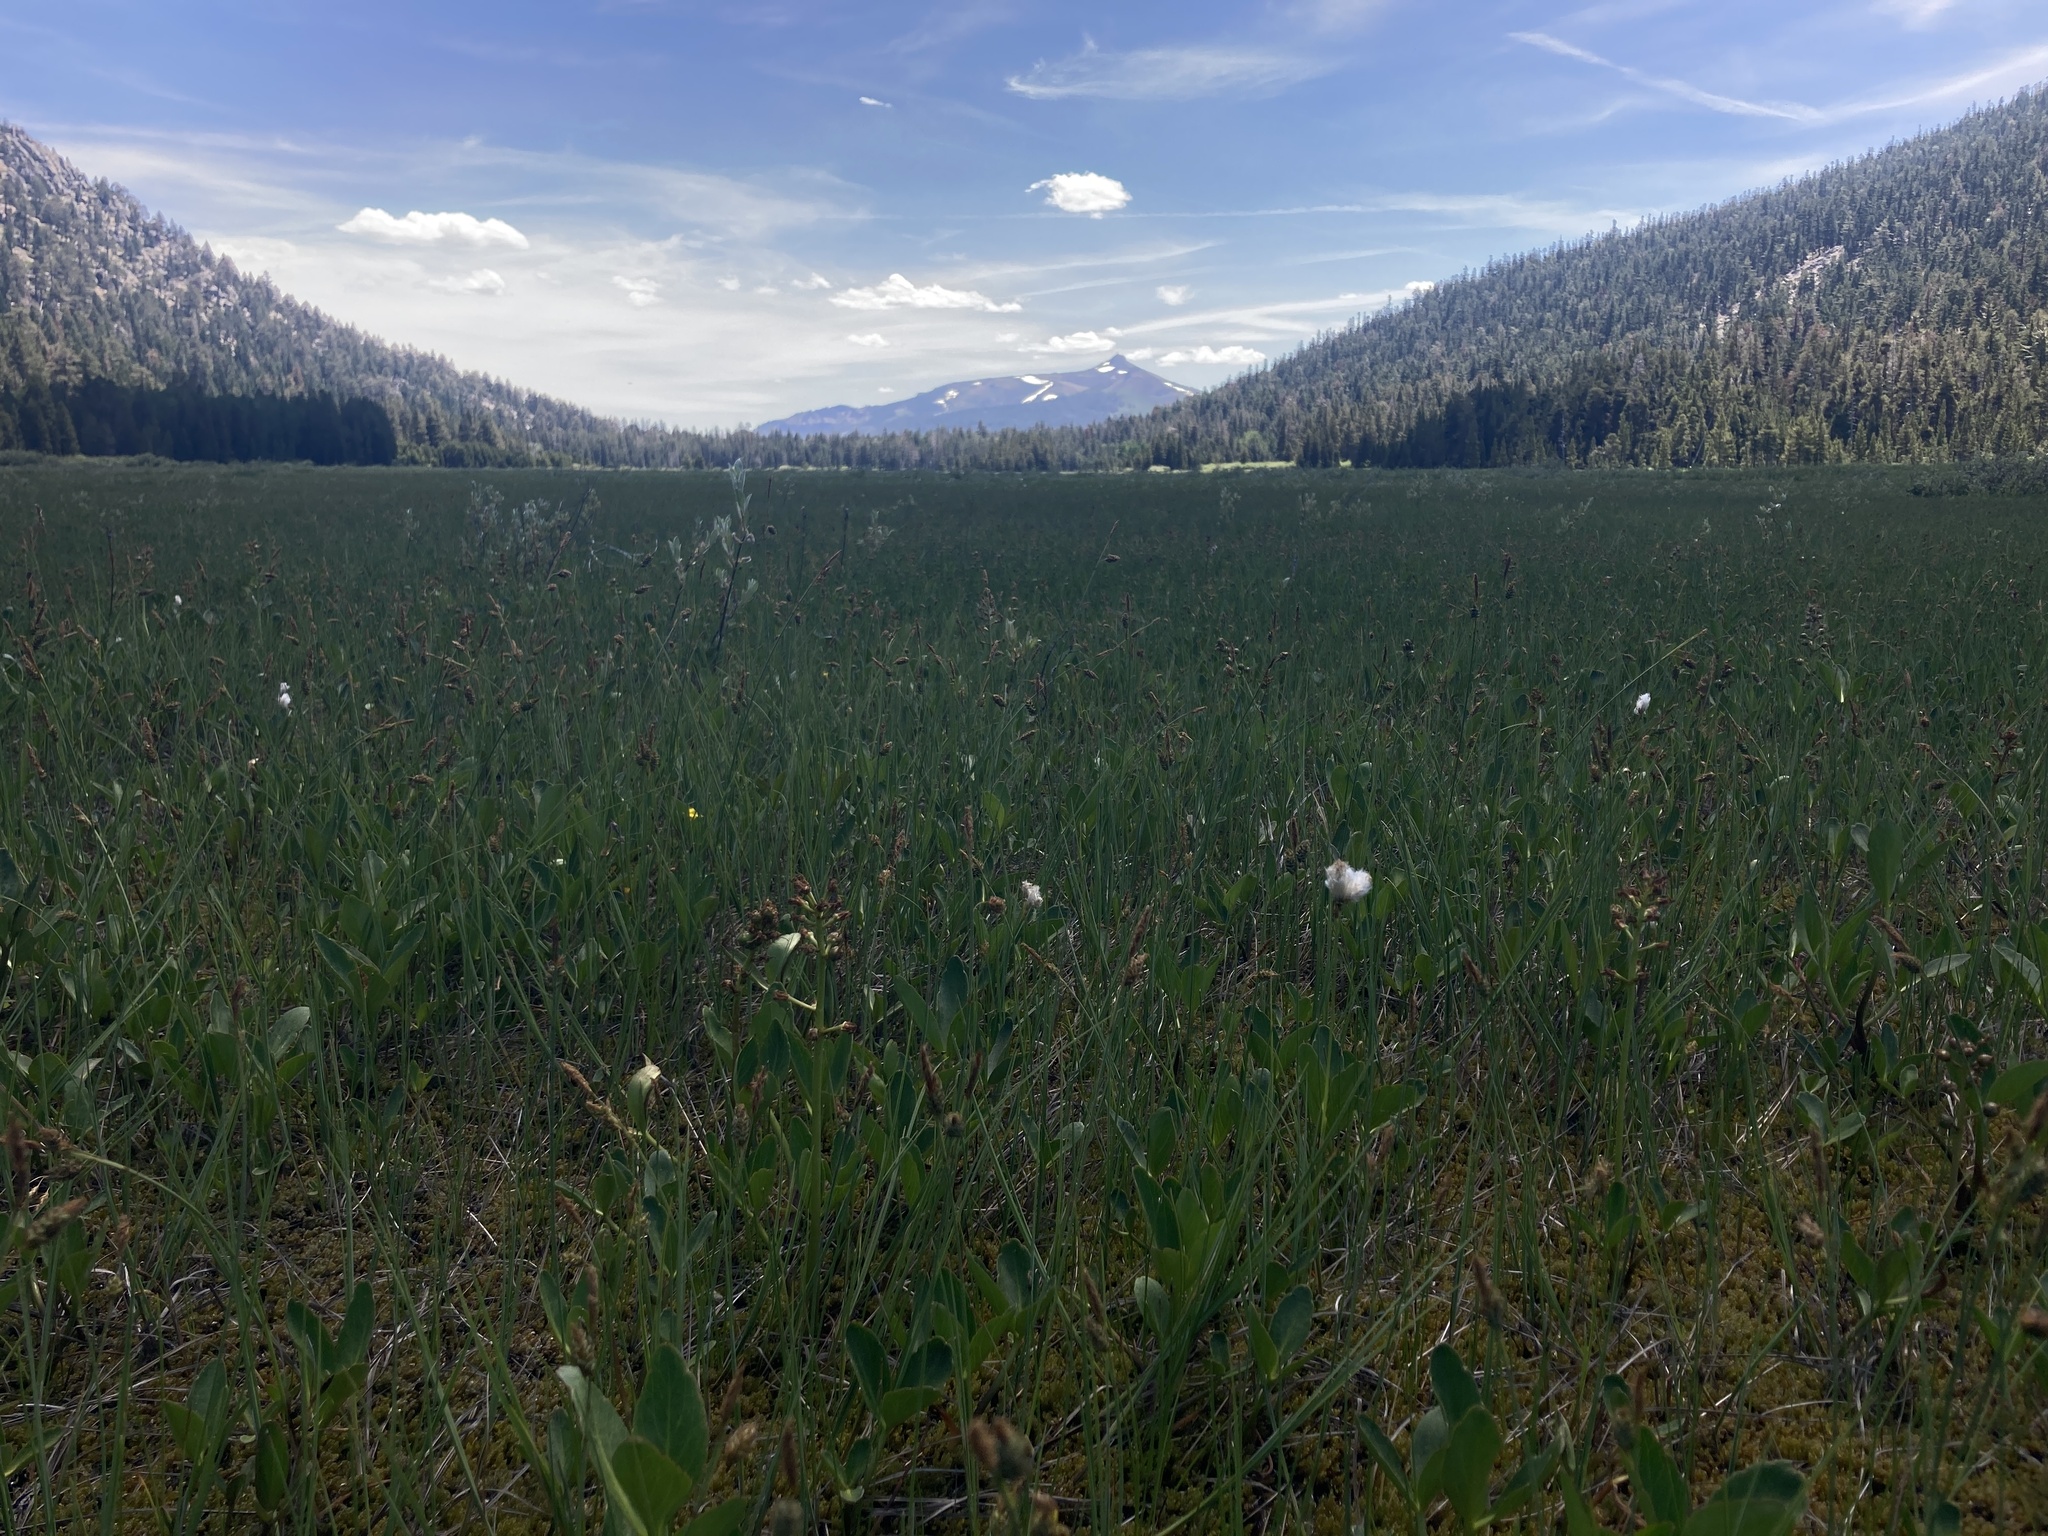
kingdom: Plantae
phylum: Tracheophyta
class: Liliopsida
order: Poales
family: Cyperaceae
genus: Eriophorum
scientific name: Eriophorum gracile
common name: Slender cottongrass
